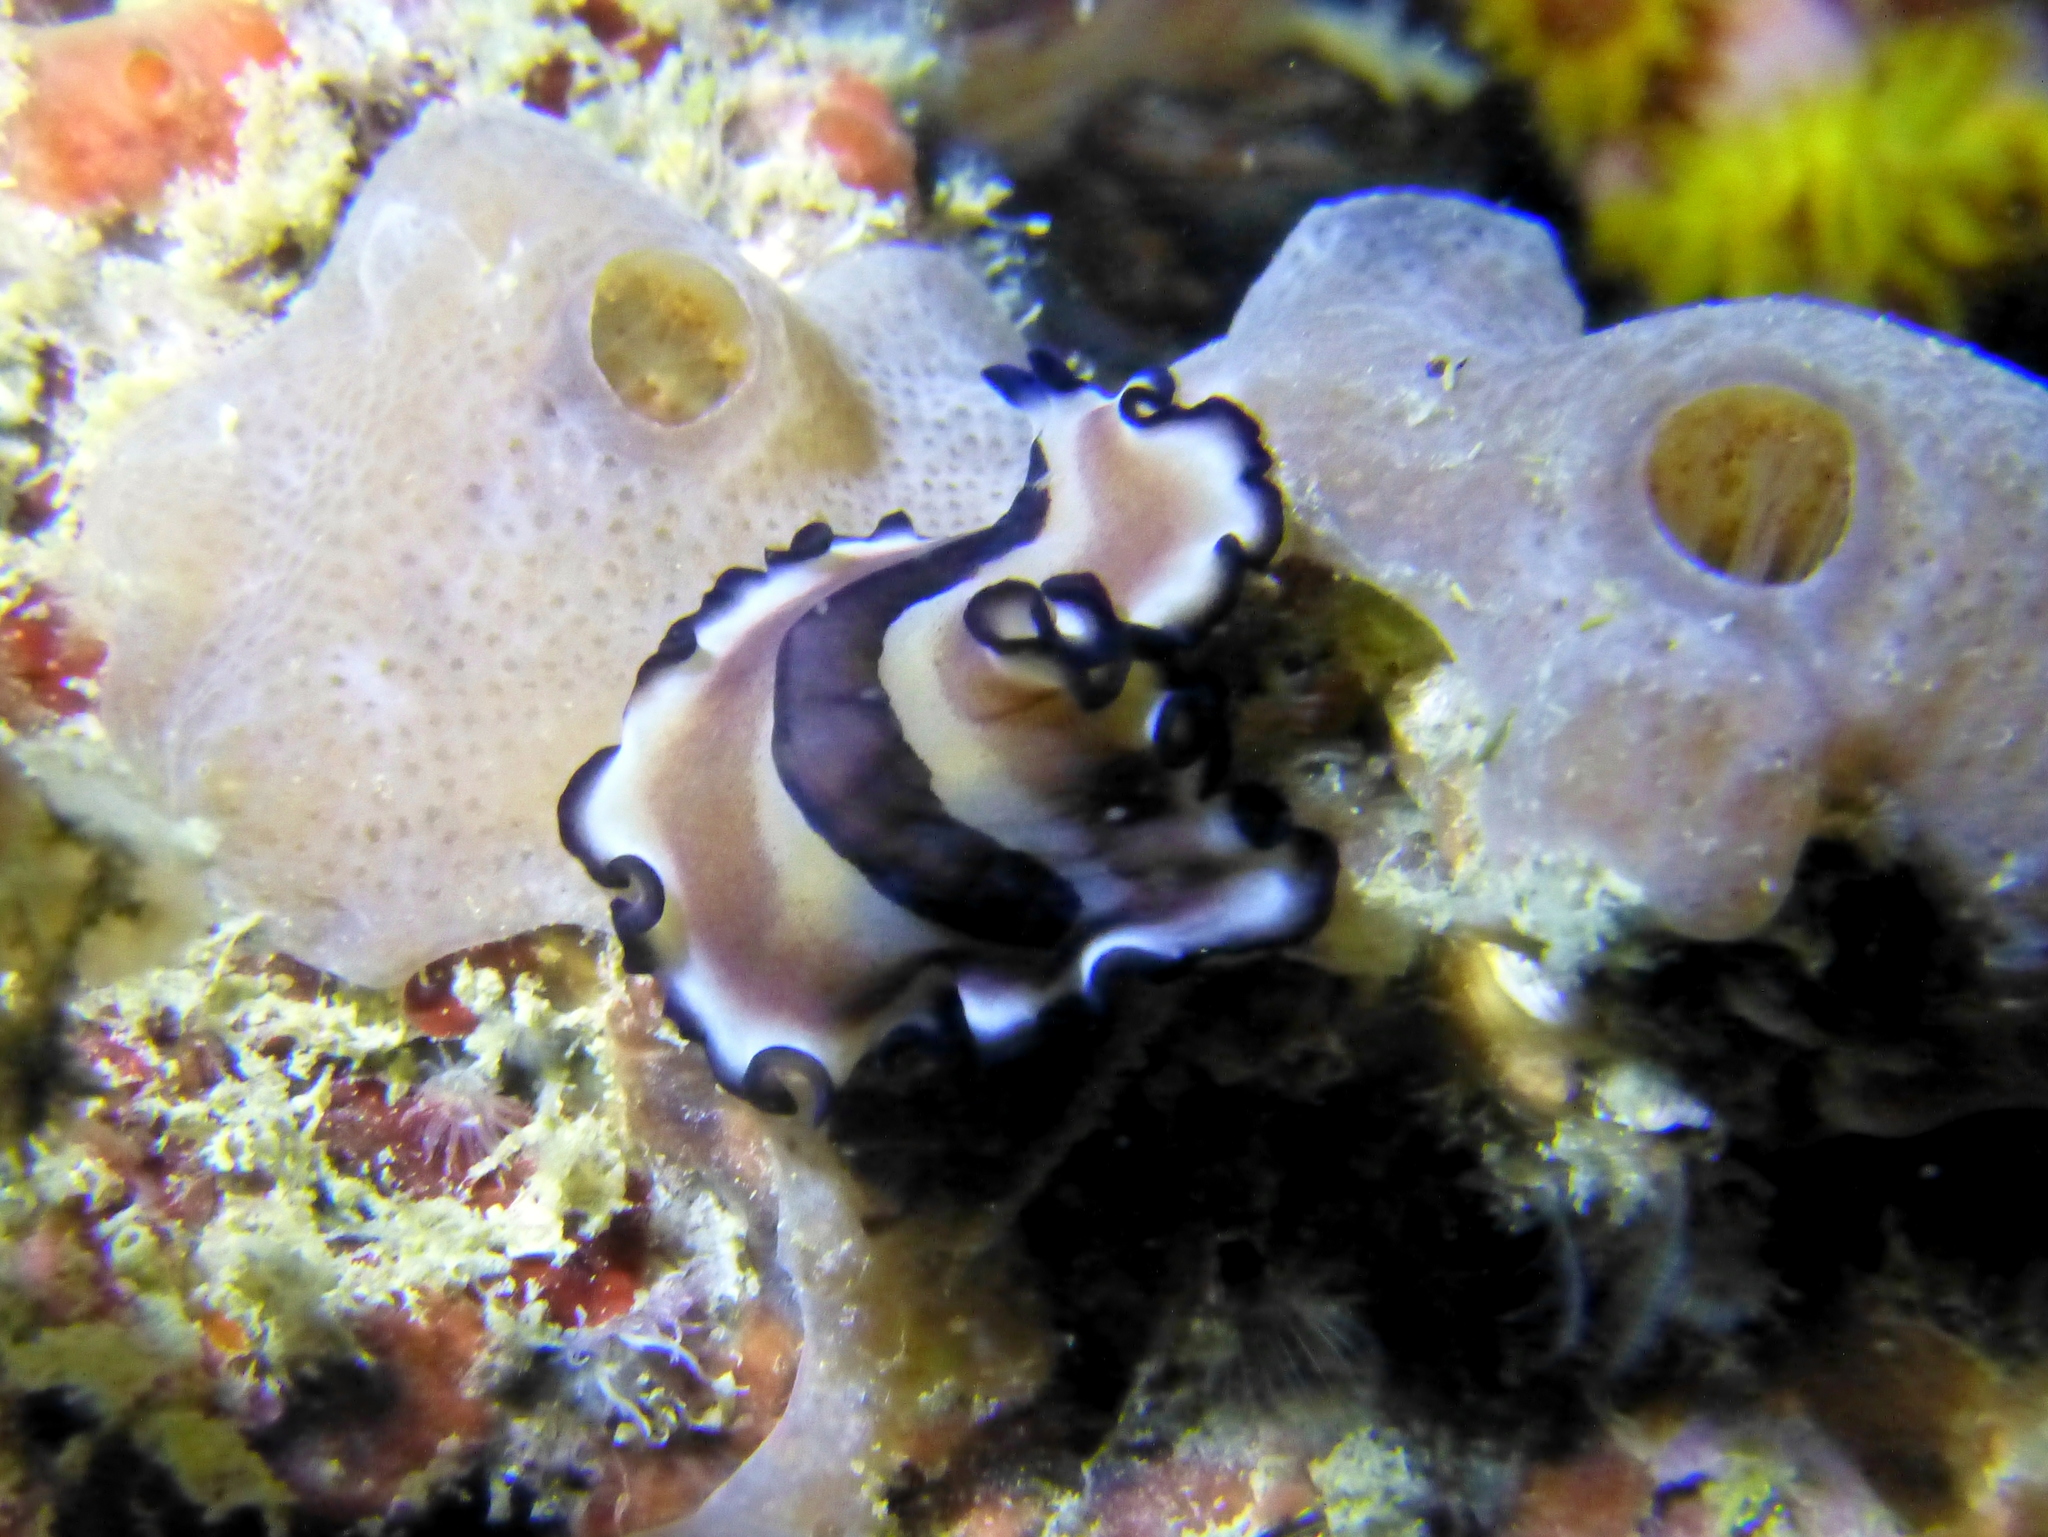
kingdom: Animalia
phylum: Platyhelminthes
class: Turbellaria
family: Pseudocerotidae
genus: Nymphozoon
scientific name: Nymphozoon bayeri
